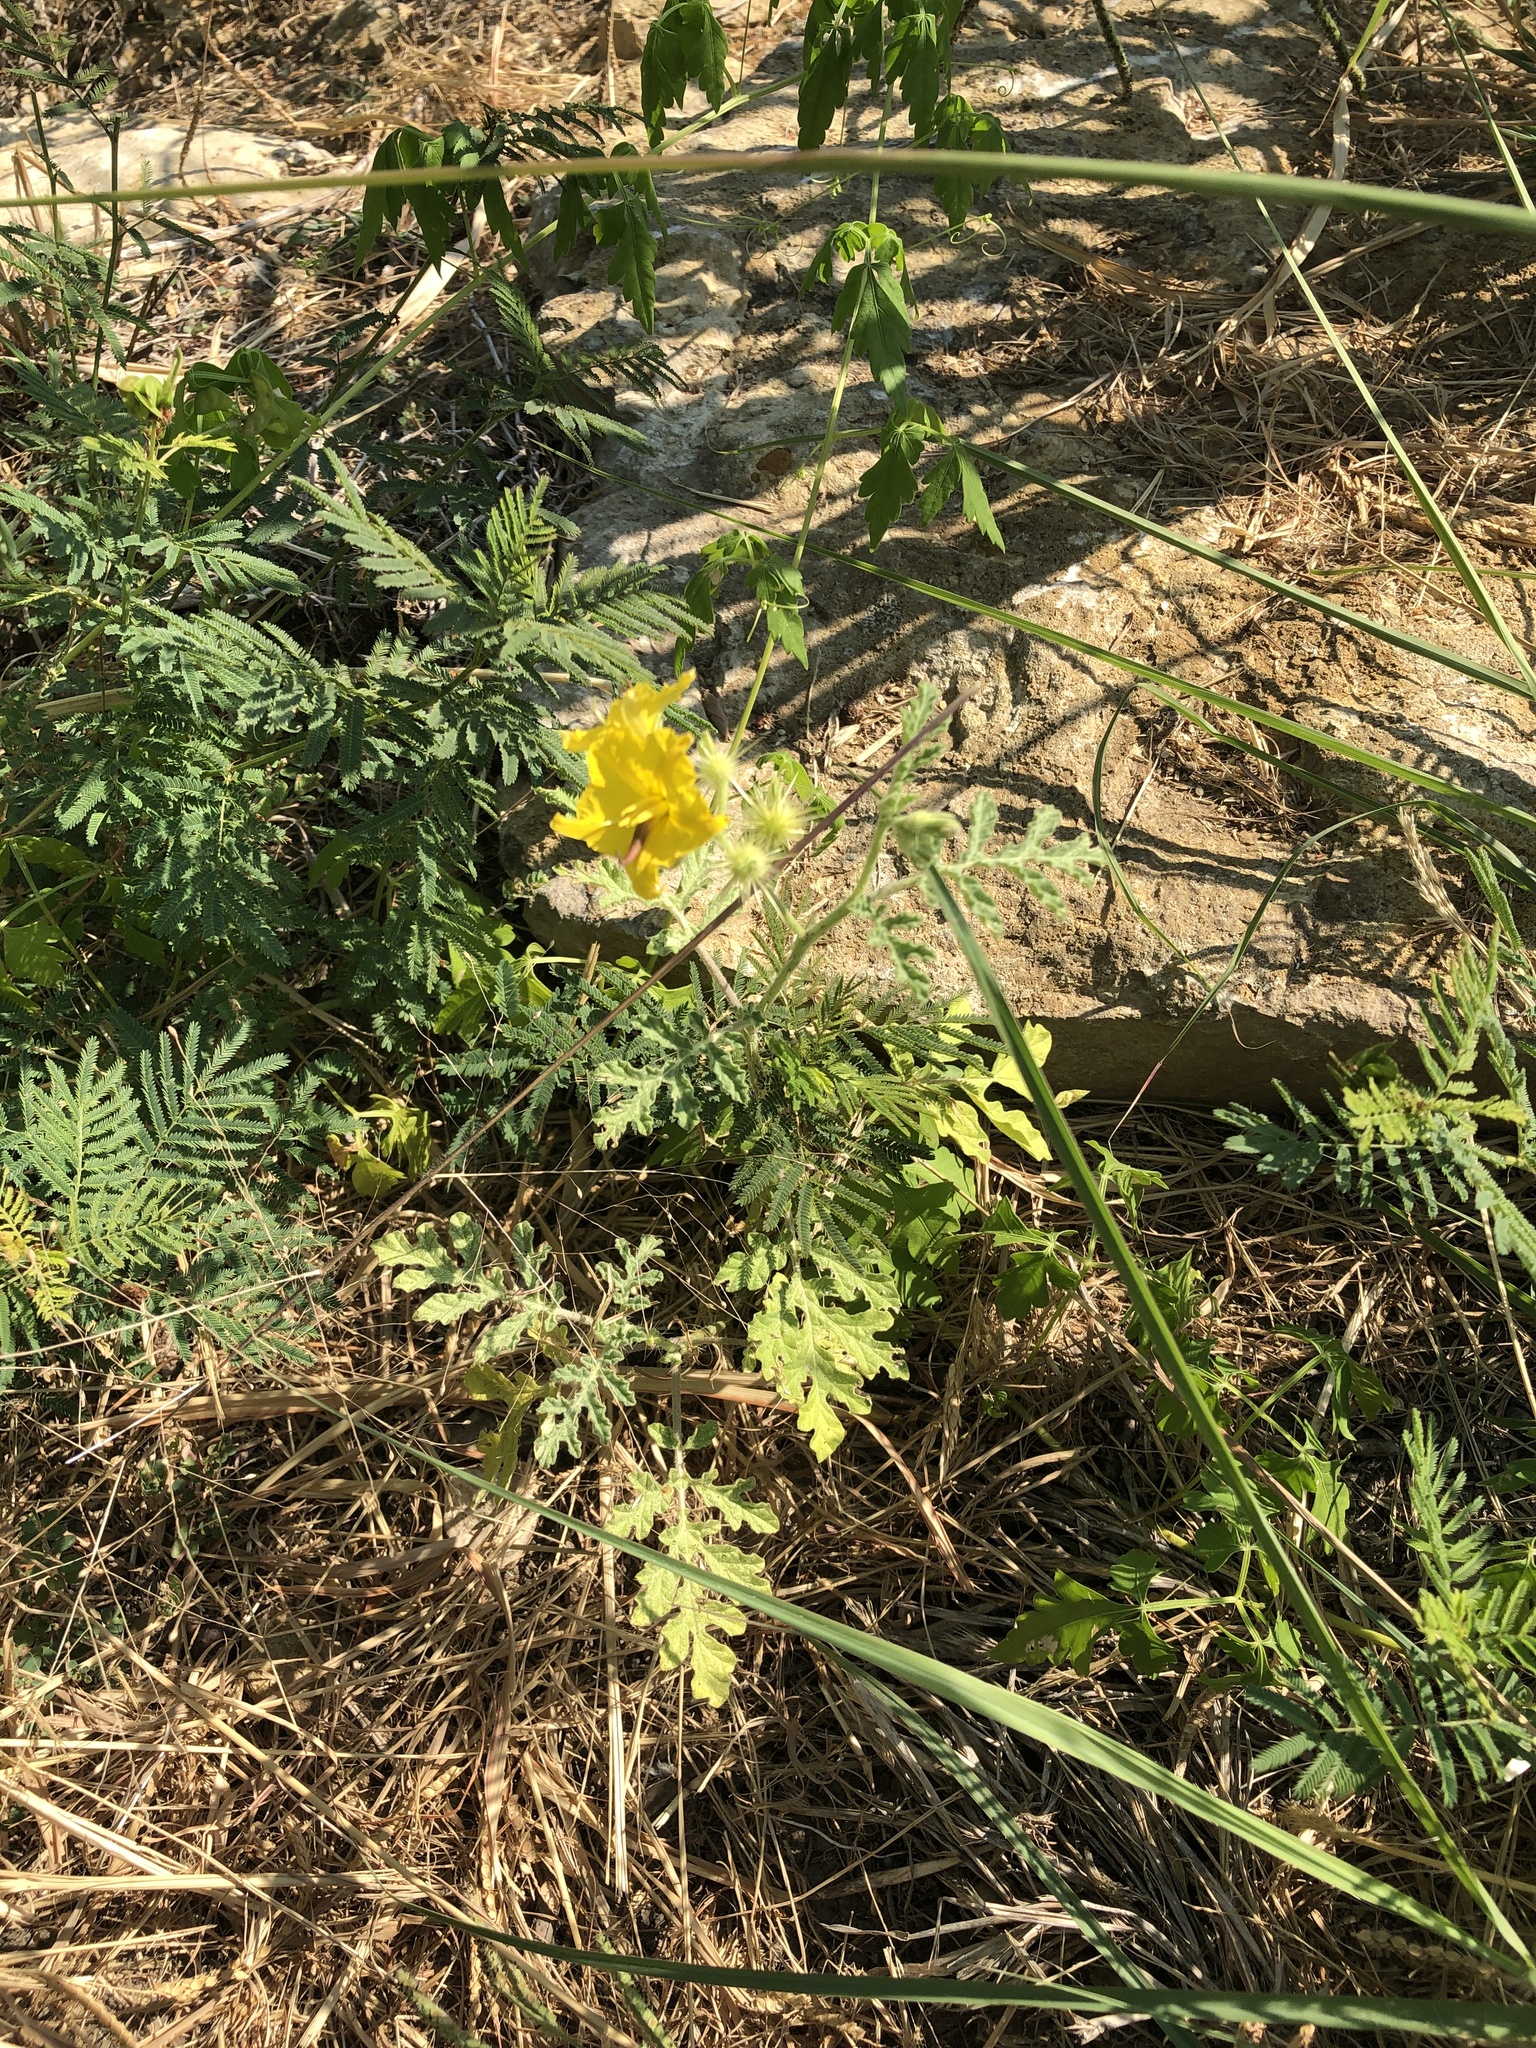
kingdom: Plantae
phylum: Tracheophyta
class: Magnoliopsida
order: Solanales
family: Solanaceae
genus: Solanum
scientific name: Solanum angustifolium
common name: Buffalobur nightshade
